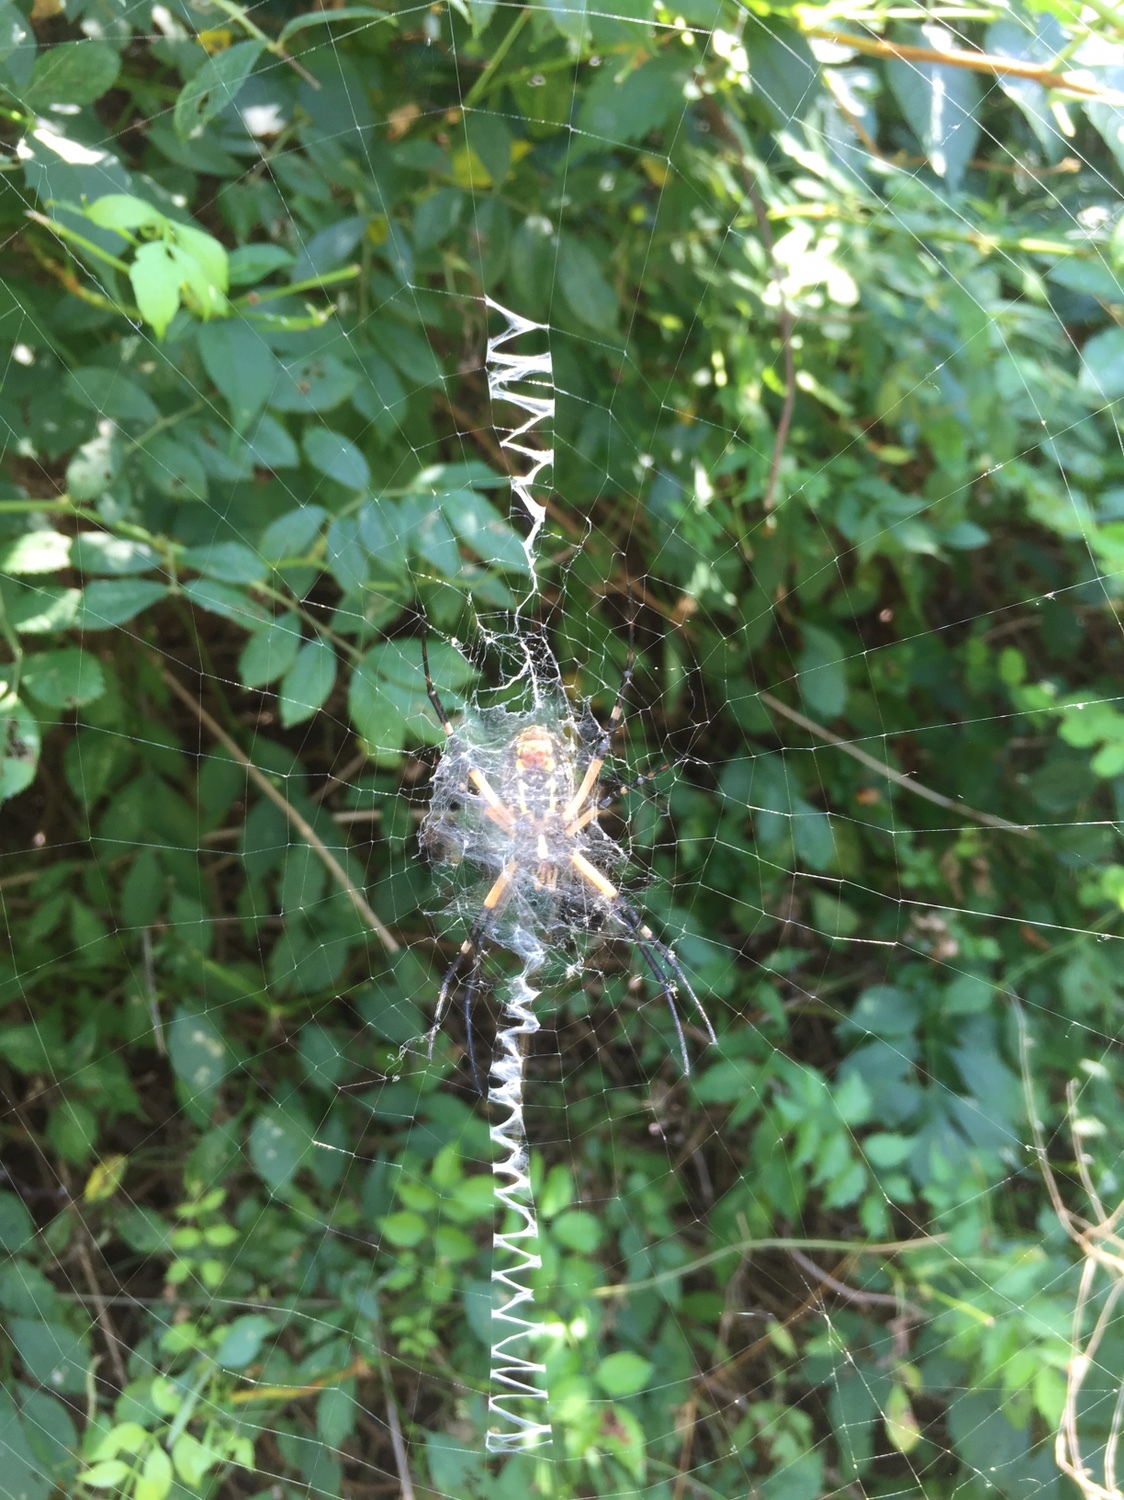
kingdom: Animalia
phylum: Arthropoda
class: Arachnida
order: Araneae
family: Araneidae
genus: Argiope
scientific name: Argiope aurantia
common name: Orb weavers
